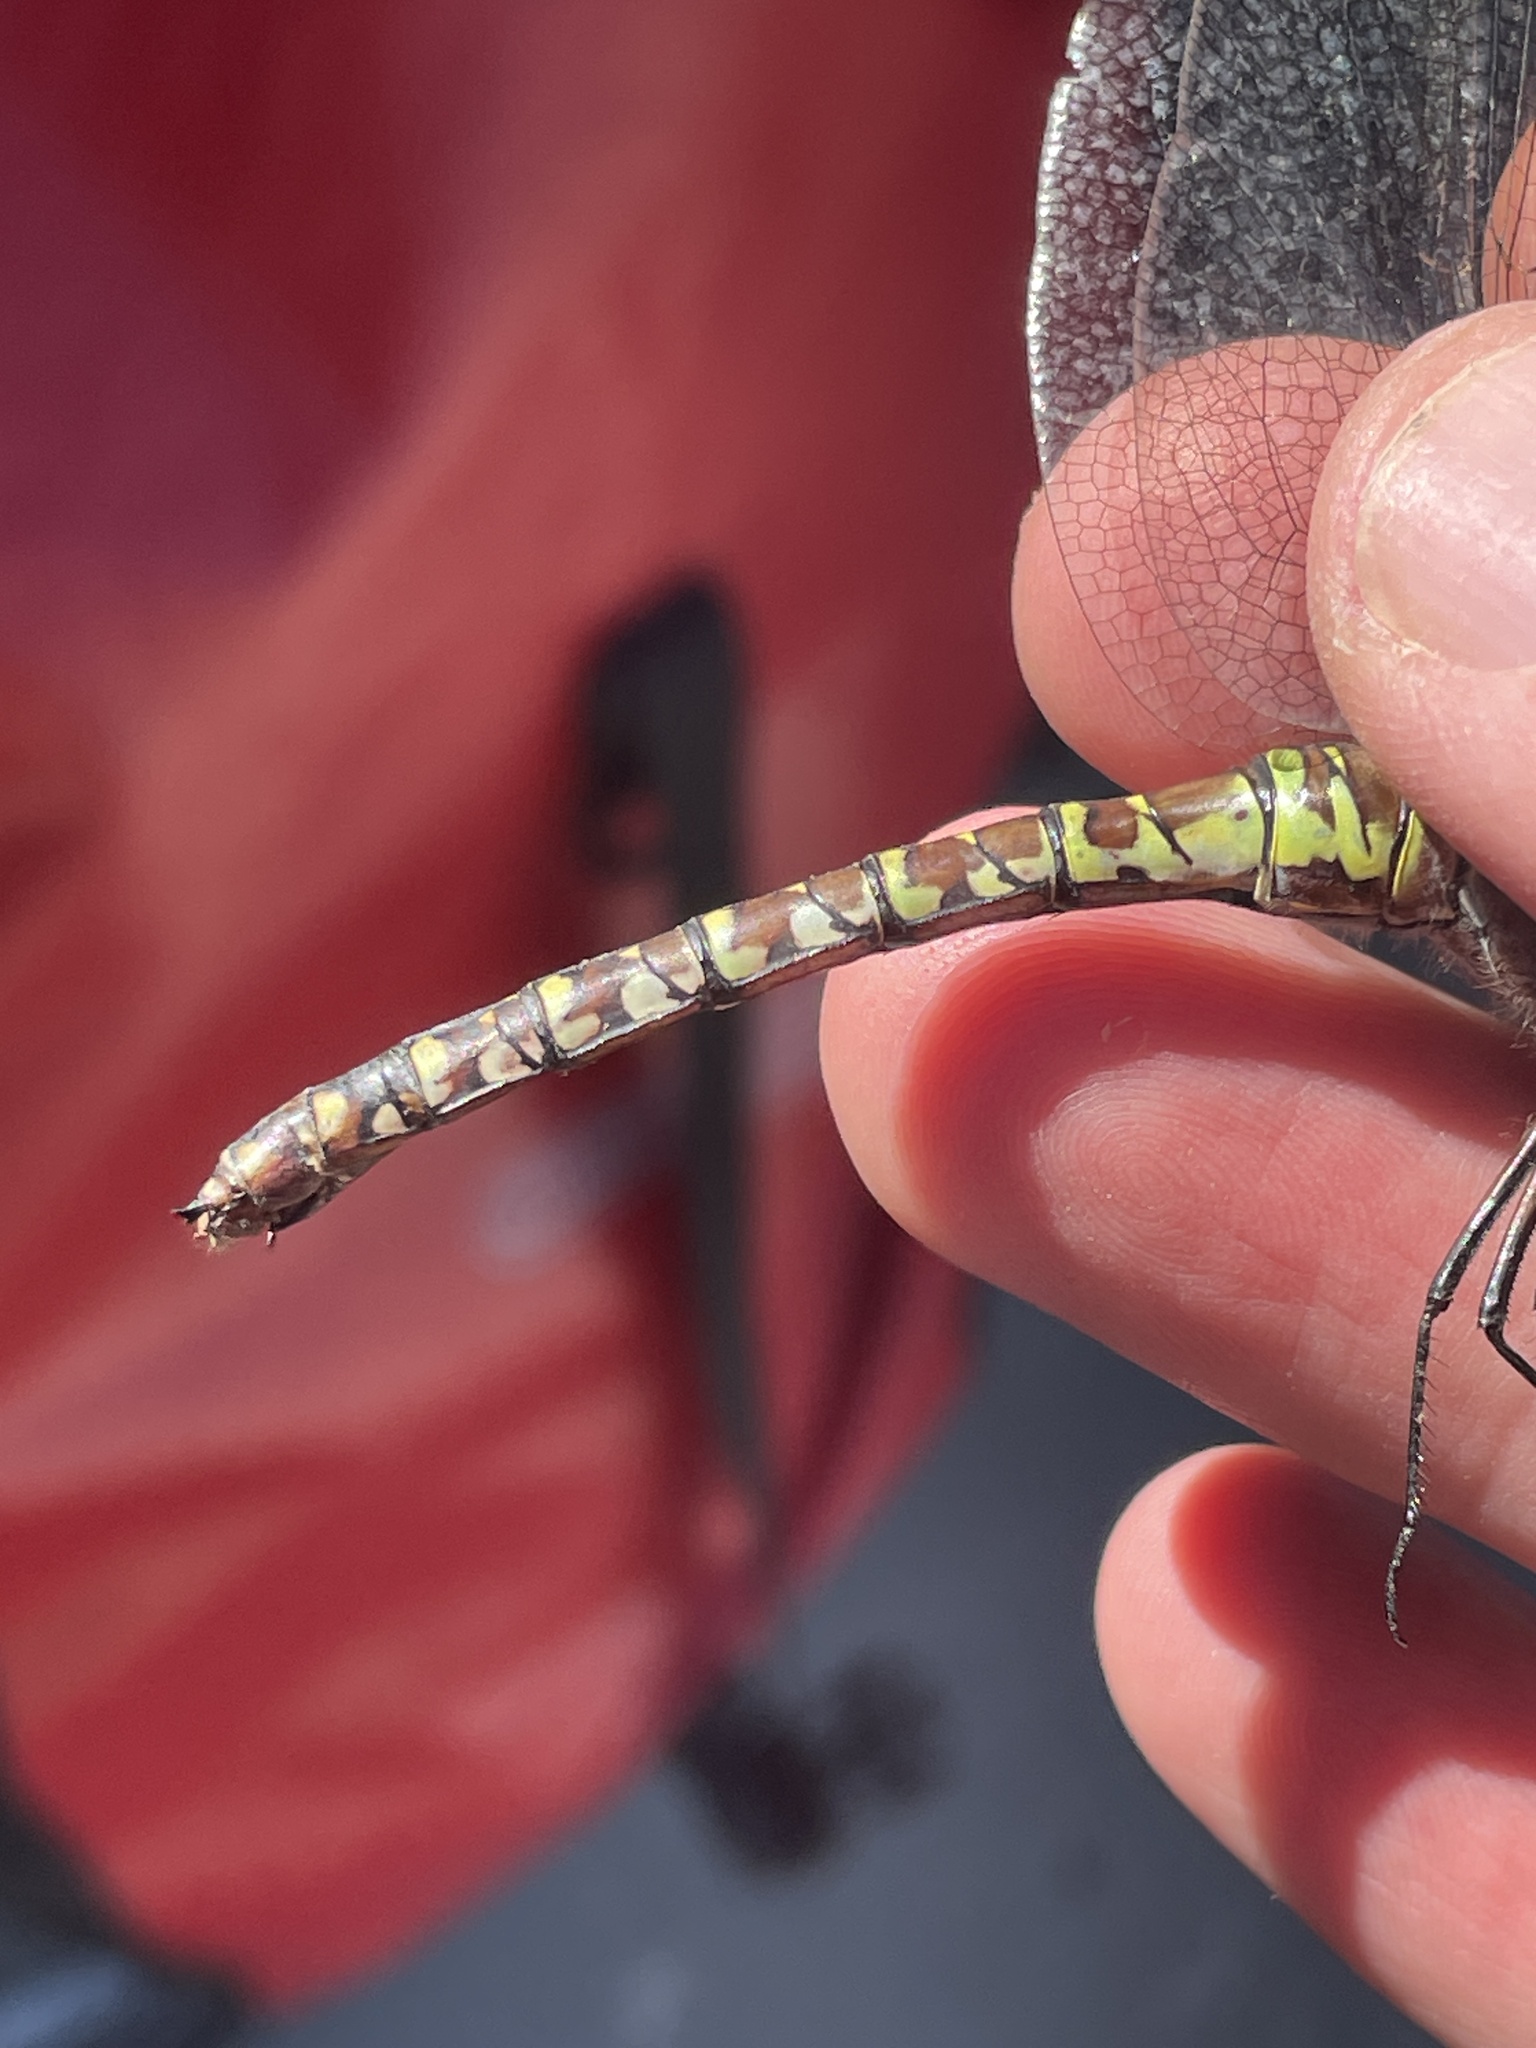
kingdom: Animalia
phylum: Arthropoda
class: Insecta
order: Odonata
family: Aeshnidae
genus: Aeshna
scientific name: Aeshna interrupta
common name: Variable darner
